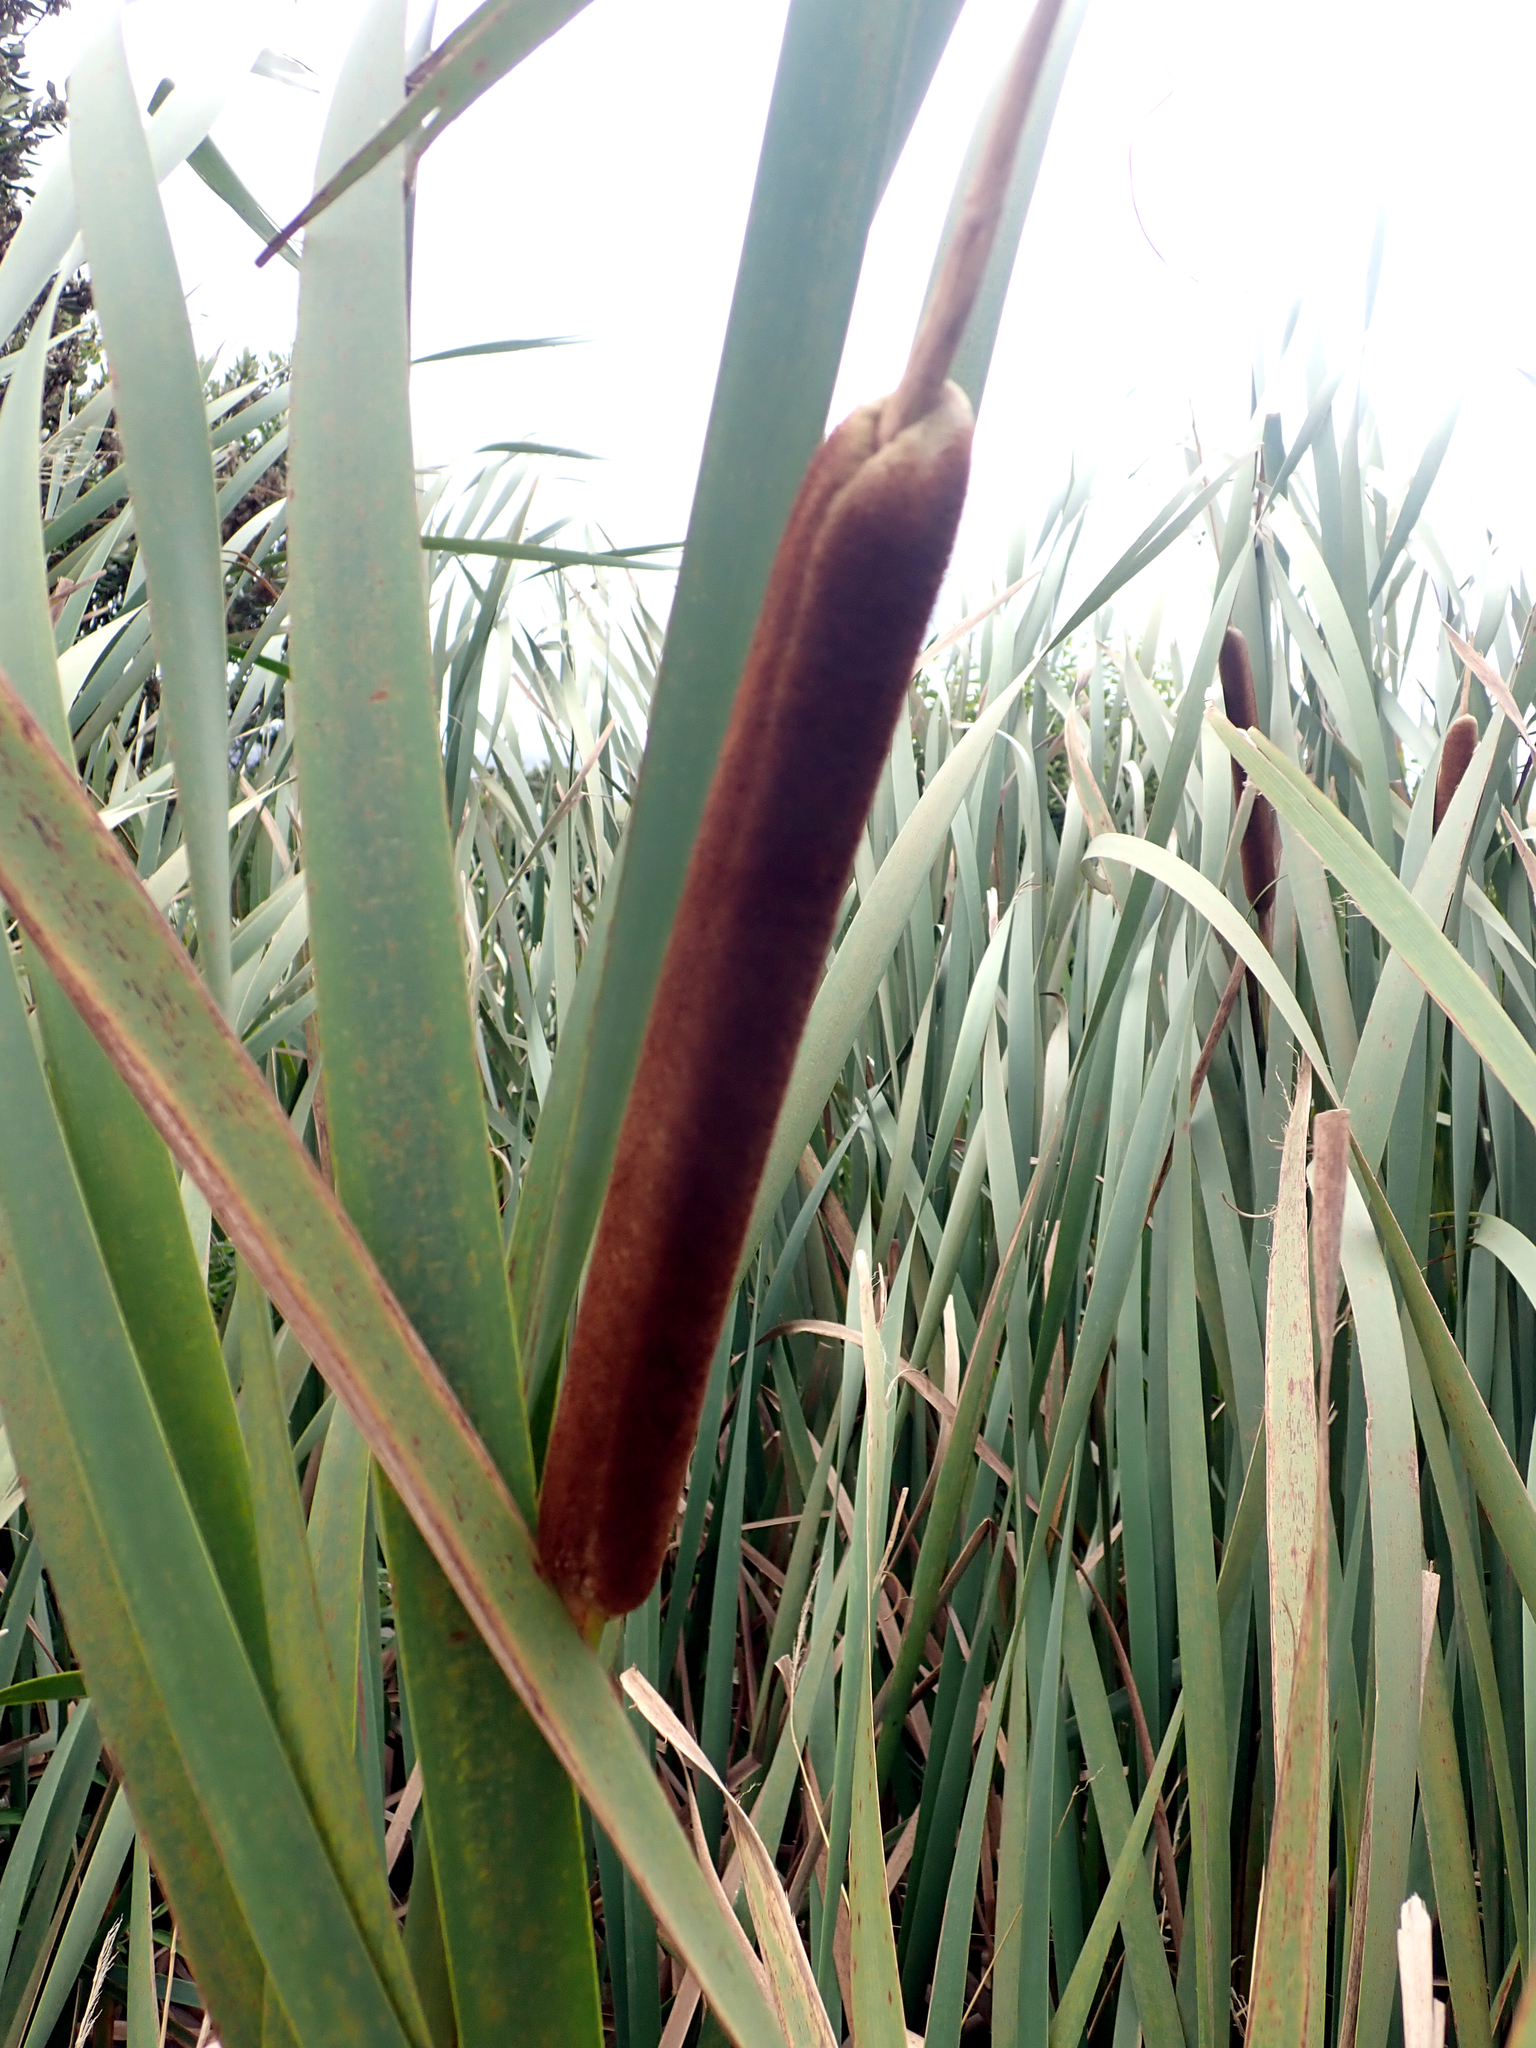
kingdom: Plantae
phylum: Tracheophyta
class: Liliopsida
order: Poales
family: Typhaceae
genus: Typha
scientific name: Typha orientalis
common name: Bullrush
